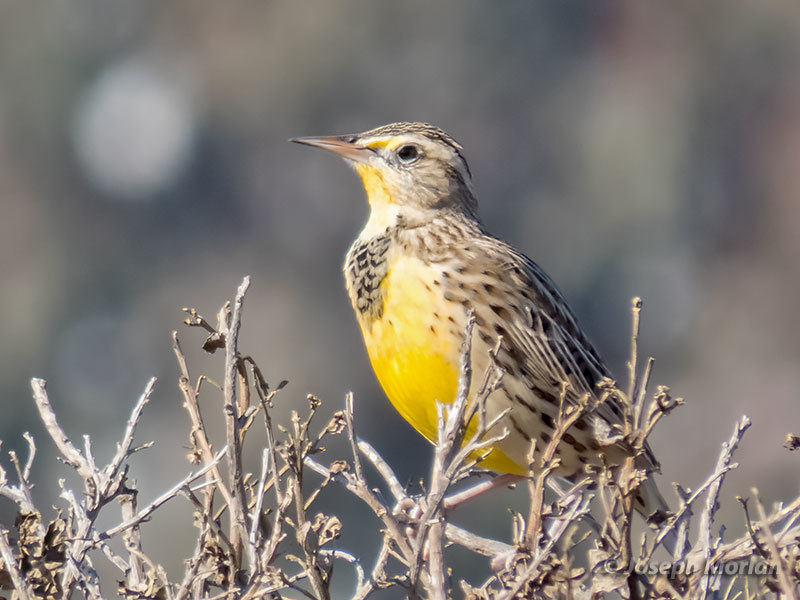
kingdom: Animalia
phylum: Chordata
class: Aves
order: Passeriformes
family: Icteridae
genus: Sturnella
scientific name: Sturnella neglecta
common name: Western meadowlark
